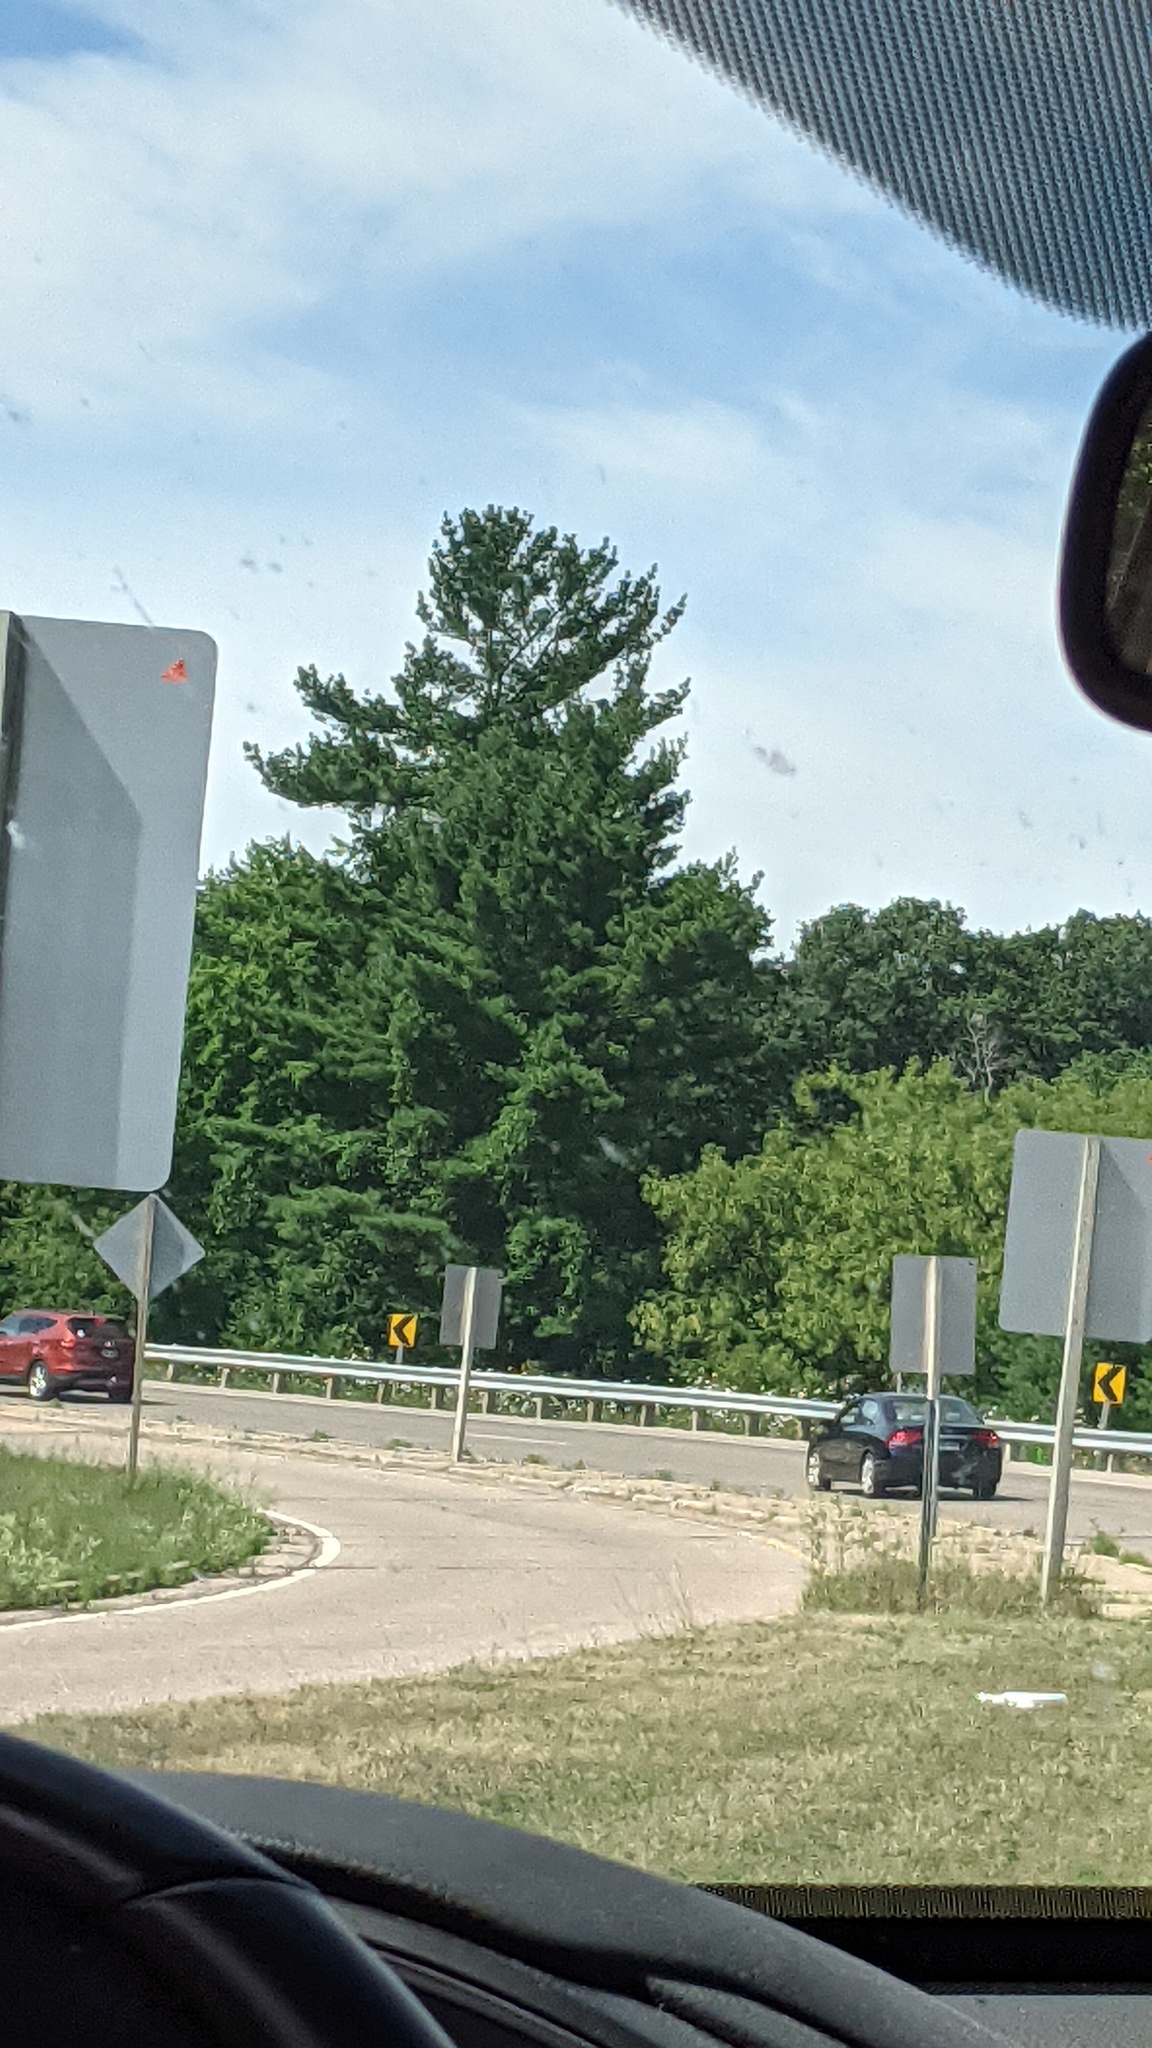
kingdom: Plantae
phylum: Tracheophyta
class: Pinopsida
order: Pinales
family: Pinaceae
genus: Pinus
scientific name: Pinus strobus
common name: Weymouth pine
